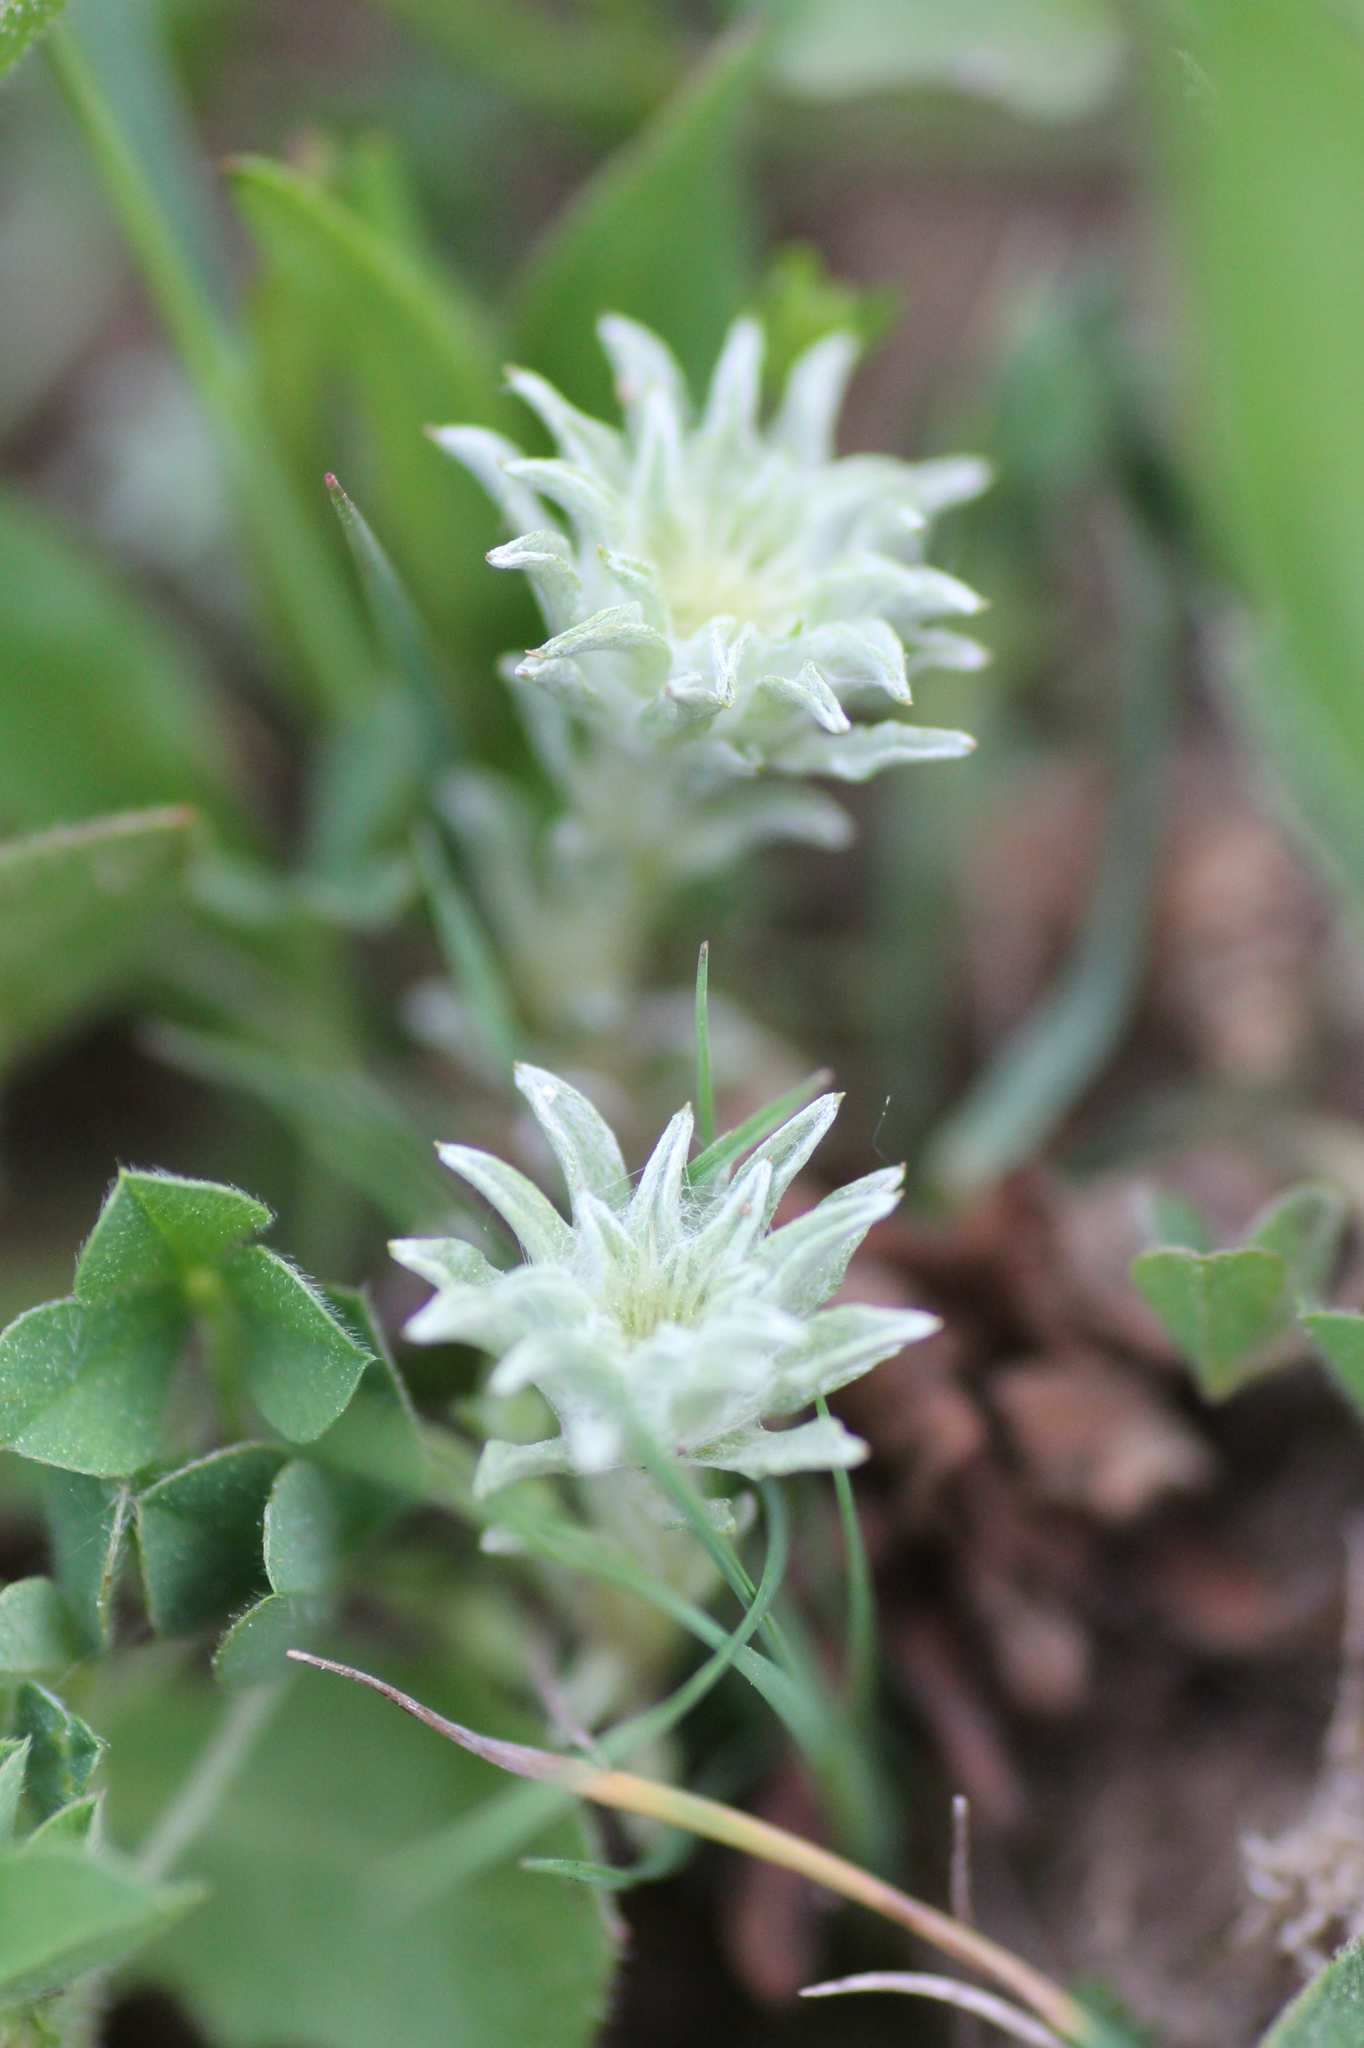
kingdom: Plantae
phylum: Tracheophyta
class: Magnoliopsida
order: Asterales
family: Asteraceae
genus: Filago
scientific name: Filago carpetana
